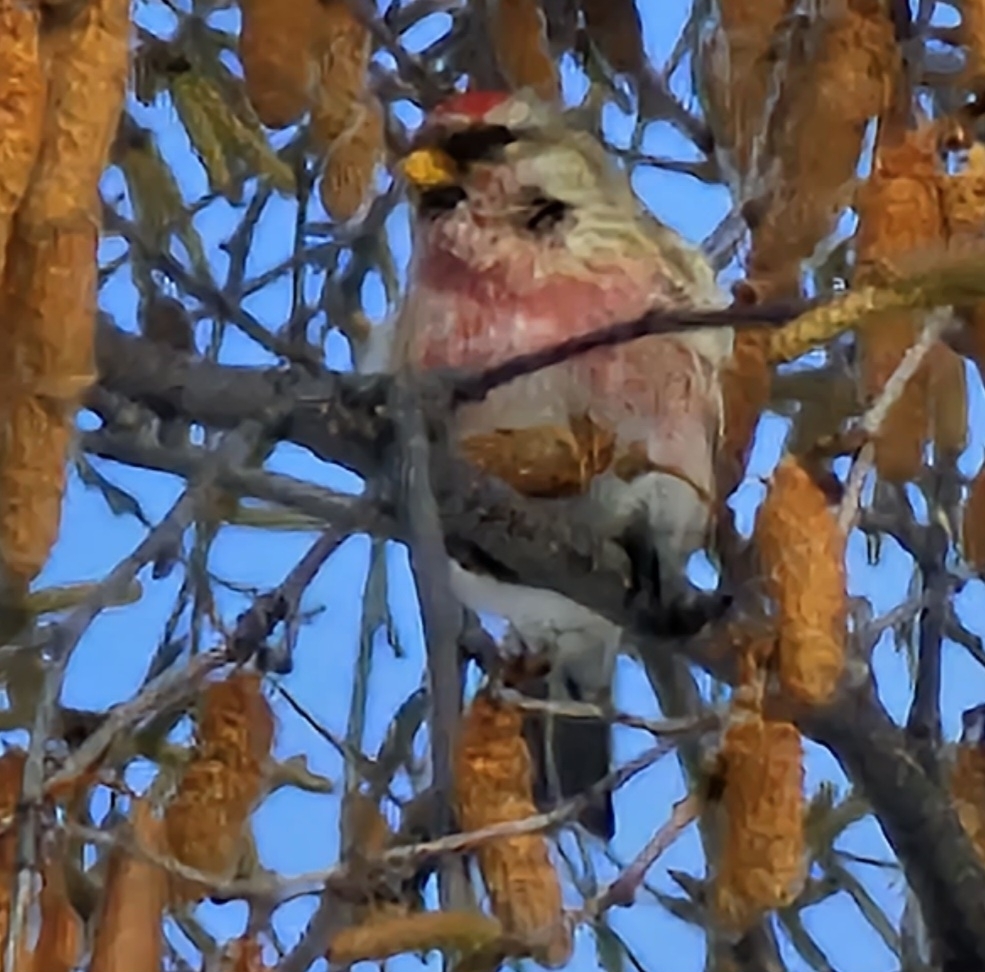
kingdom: Animalia
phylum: Chordata
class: Aves
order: Passeriformes
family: Fringillidae
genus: Acanthis
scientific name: Acanthis flammea
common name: Common redpoll
